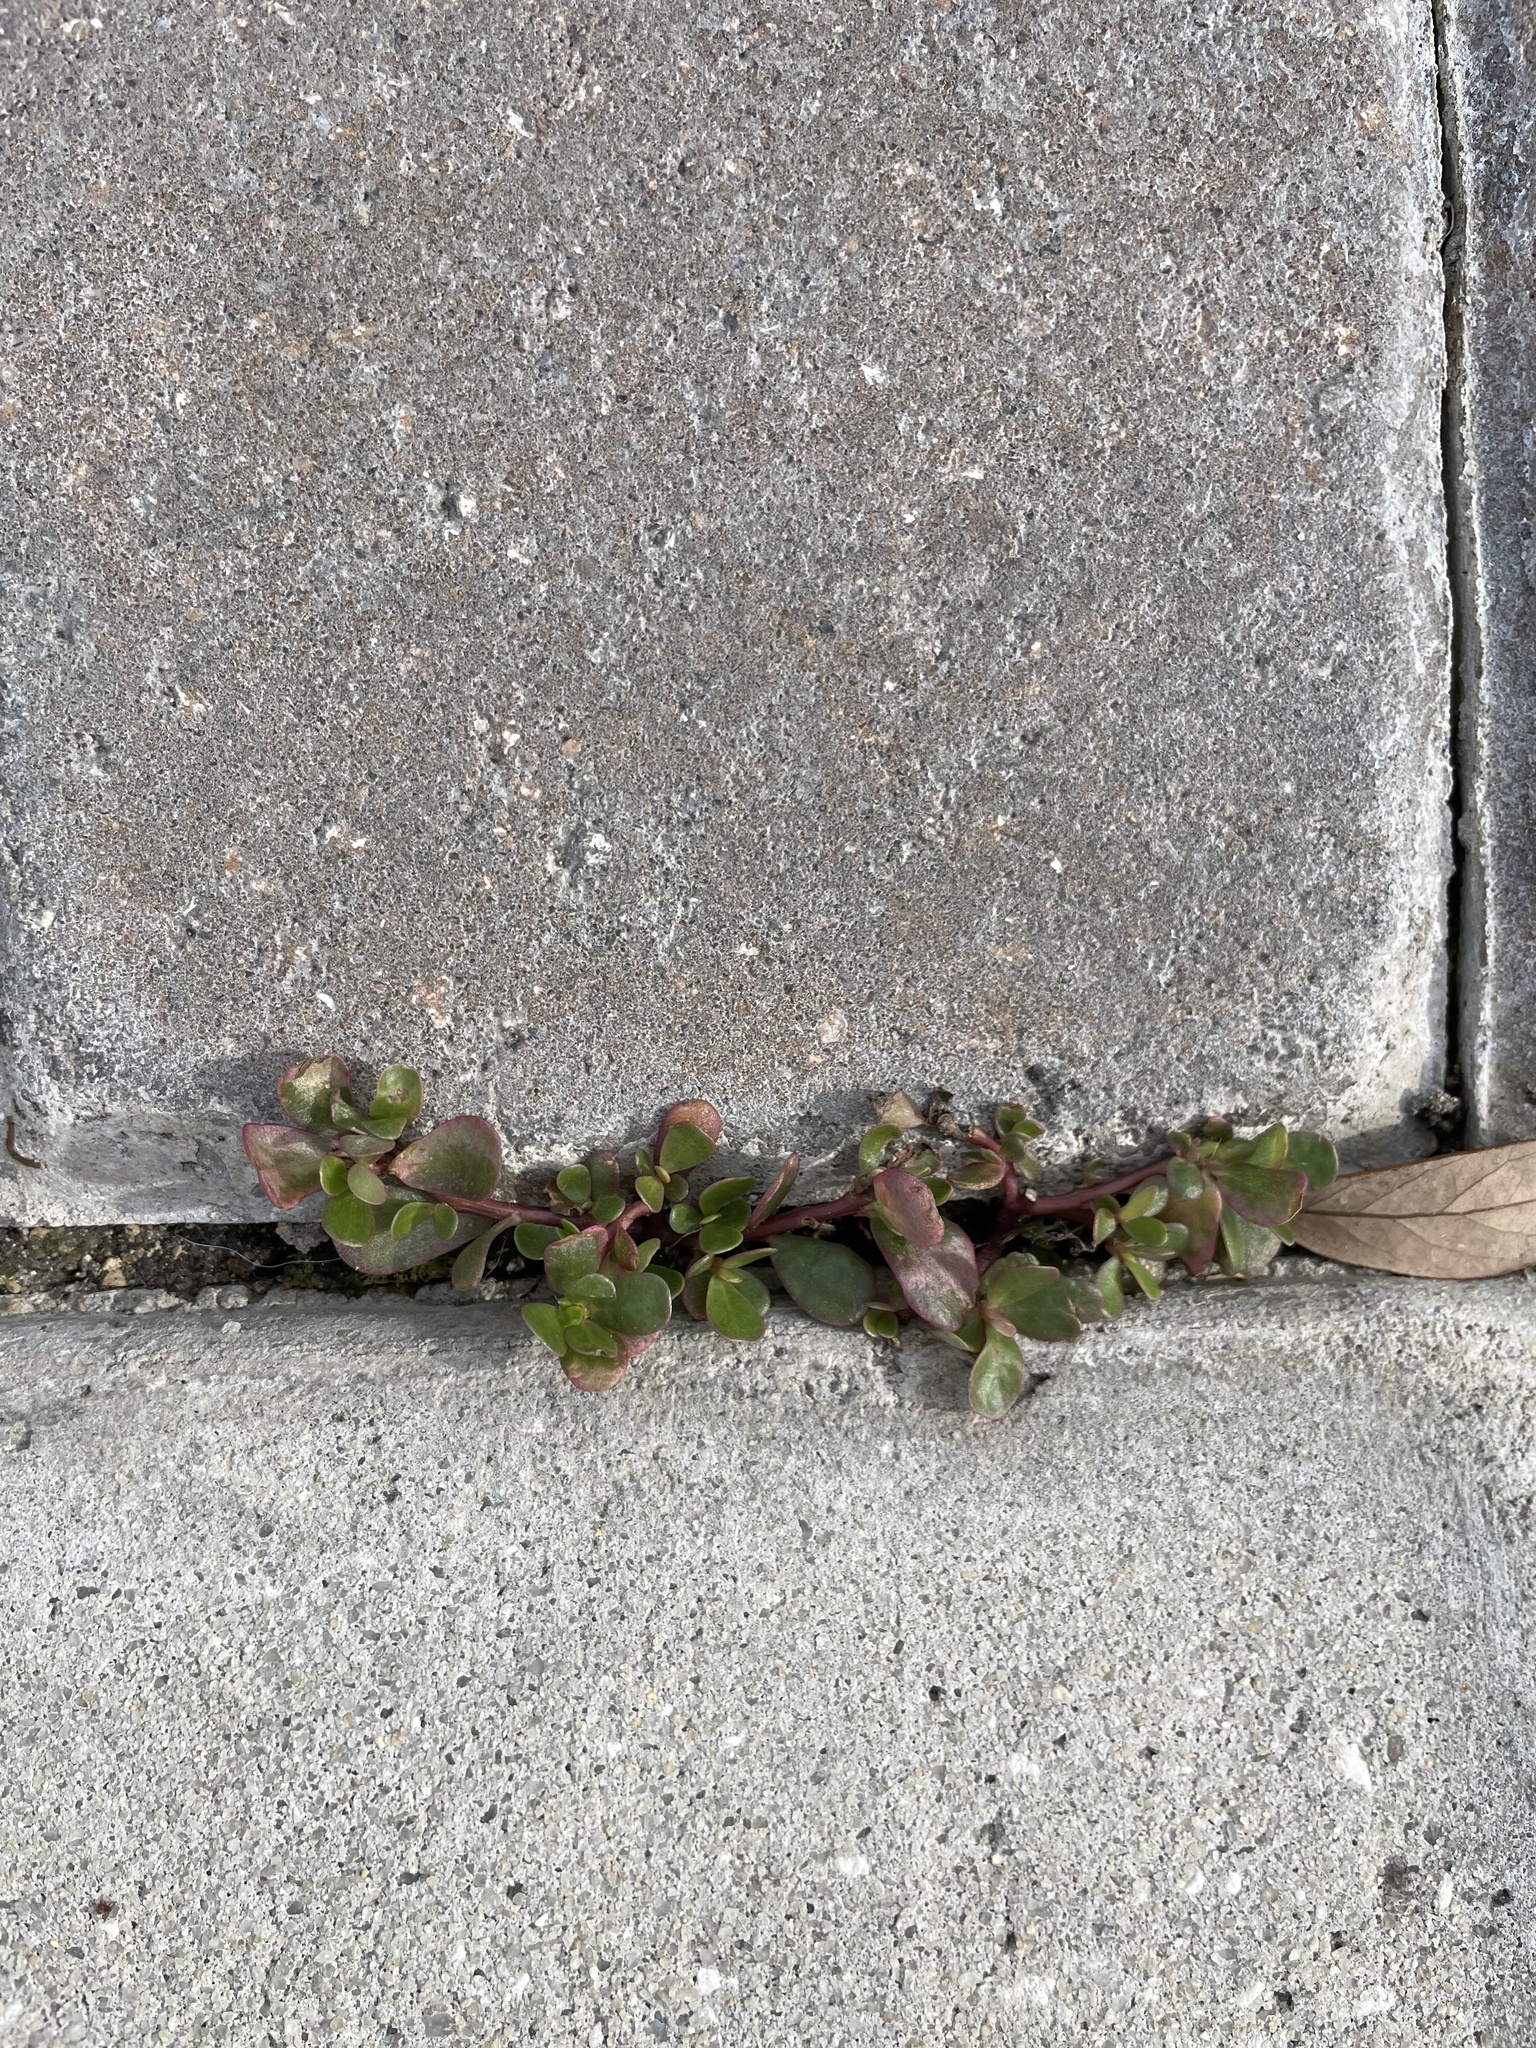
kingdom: Plantae
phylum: Tracheophyta
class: Magnoliopsida
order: Caryophyllales
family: Portulacaceae
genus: Portulaca
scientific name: Portulaca oleracea
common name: Common purslane
